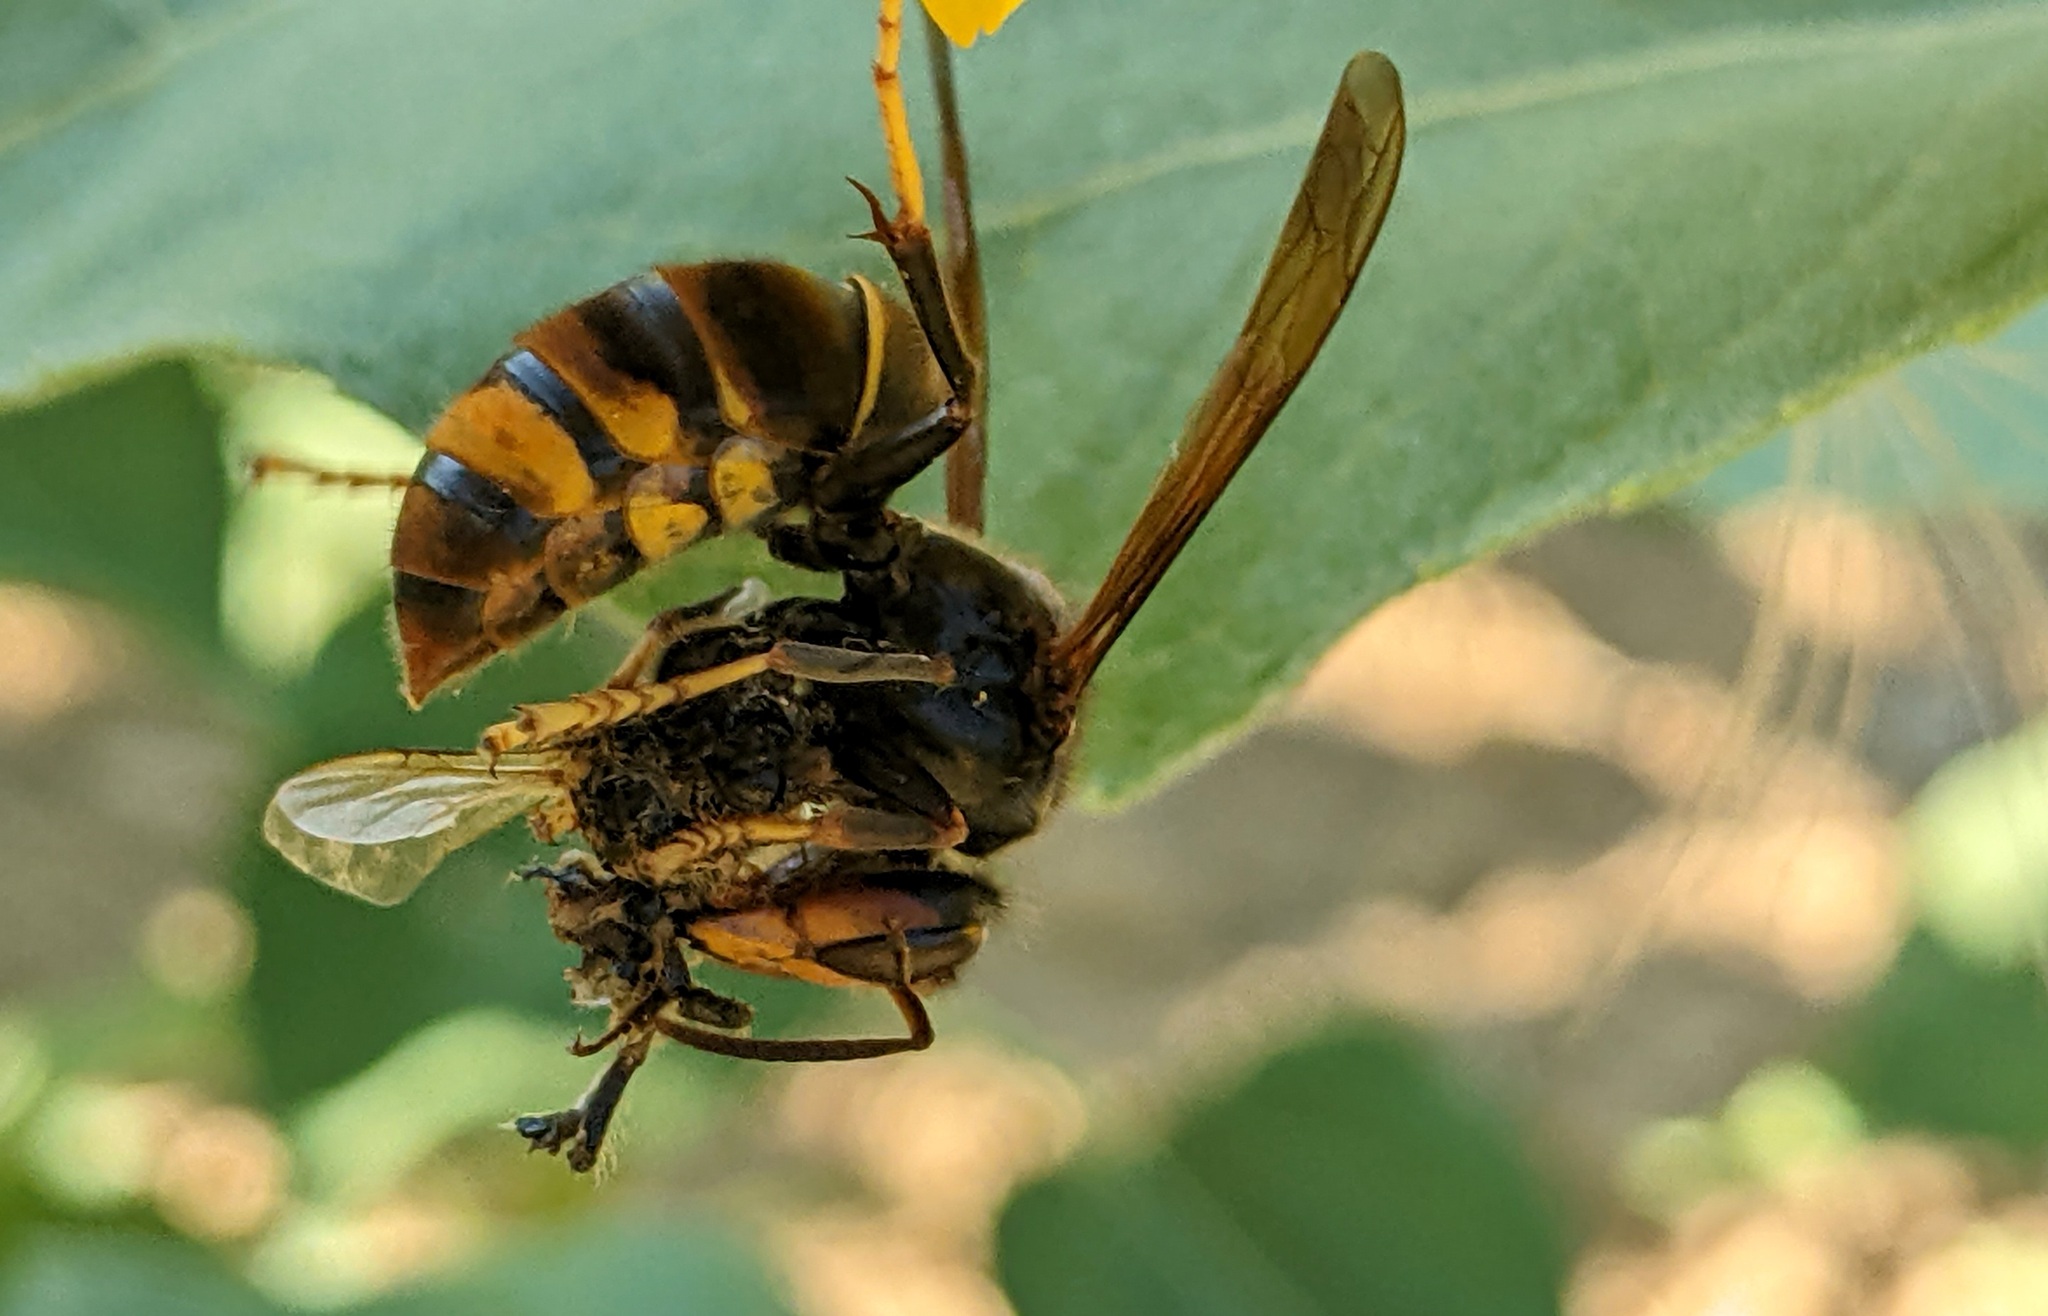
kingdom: Animalia
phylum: Arthropoda
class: Insecta
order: Hymenoptera
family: Vespidae
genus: Vespa
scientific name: Vespa velutina
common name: Asian hornet
